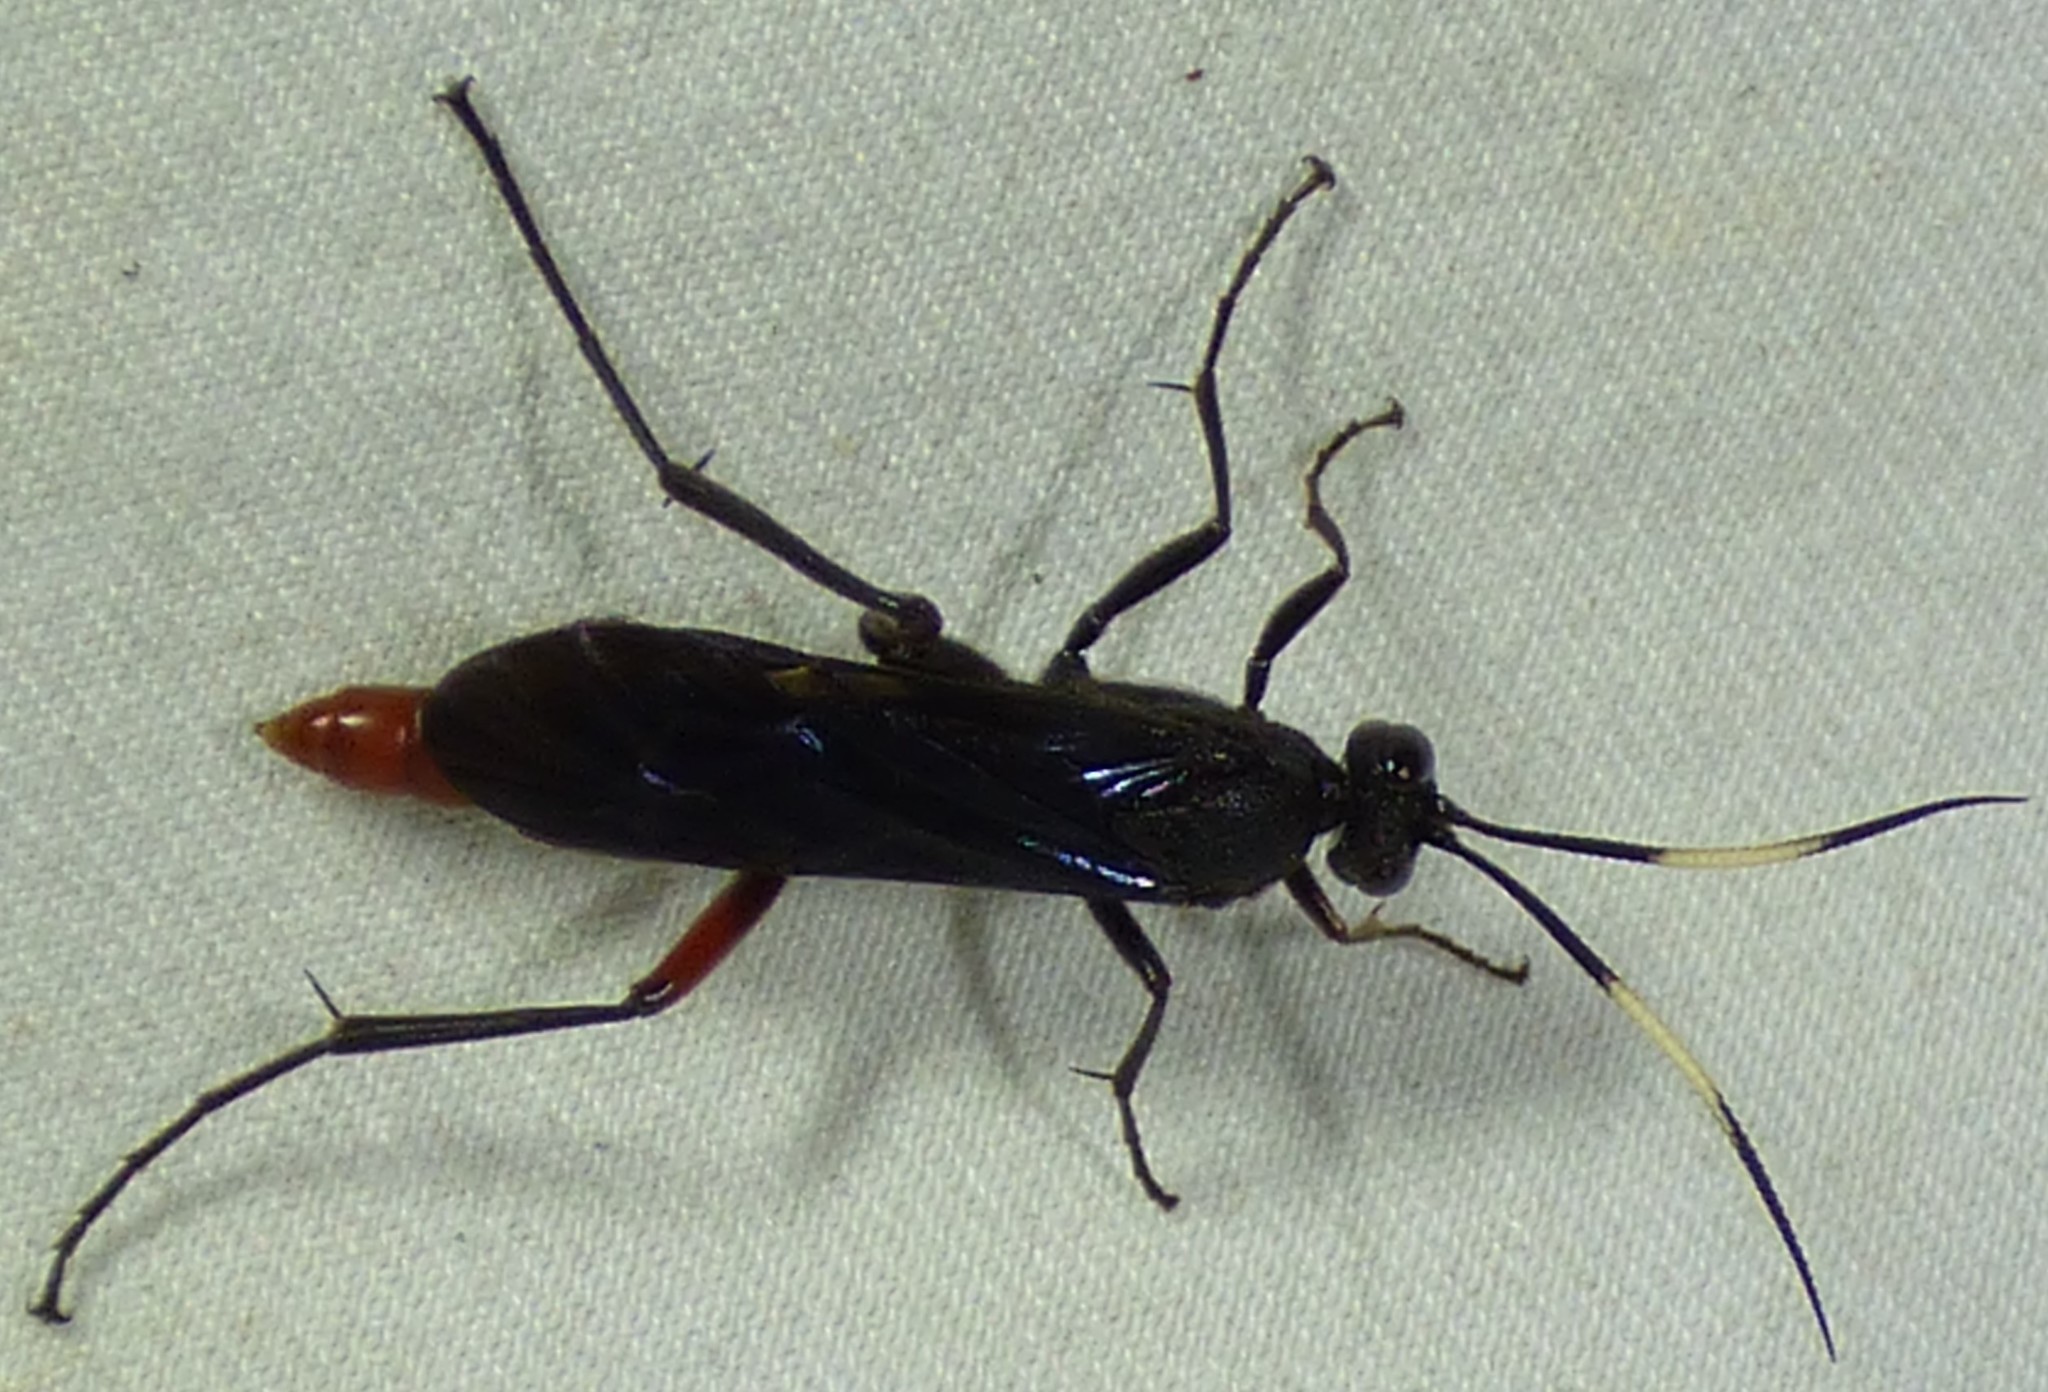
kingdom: Animalia
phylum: Arthropoda
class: Insecta
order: Hymenoptera
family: Ichneumonidae
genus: Limonethe
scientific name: Limonethe maurator
